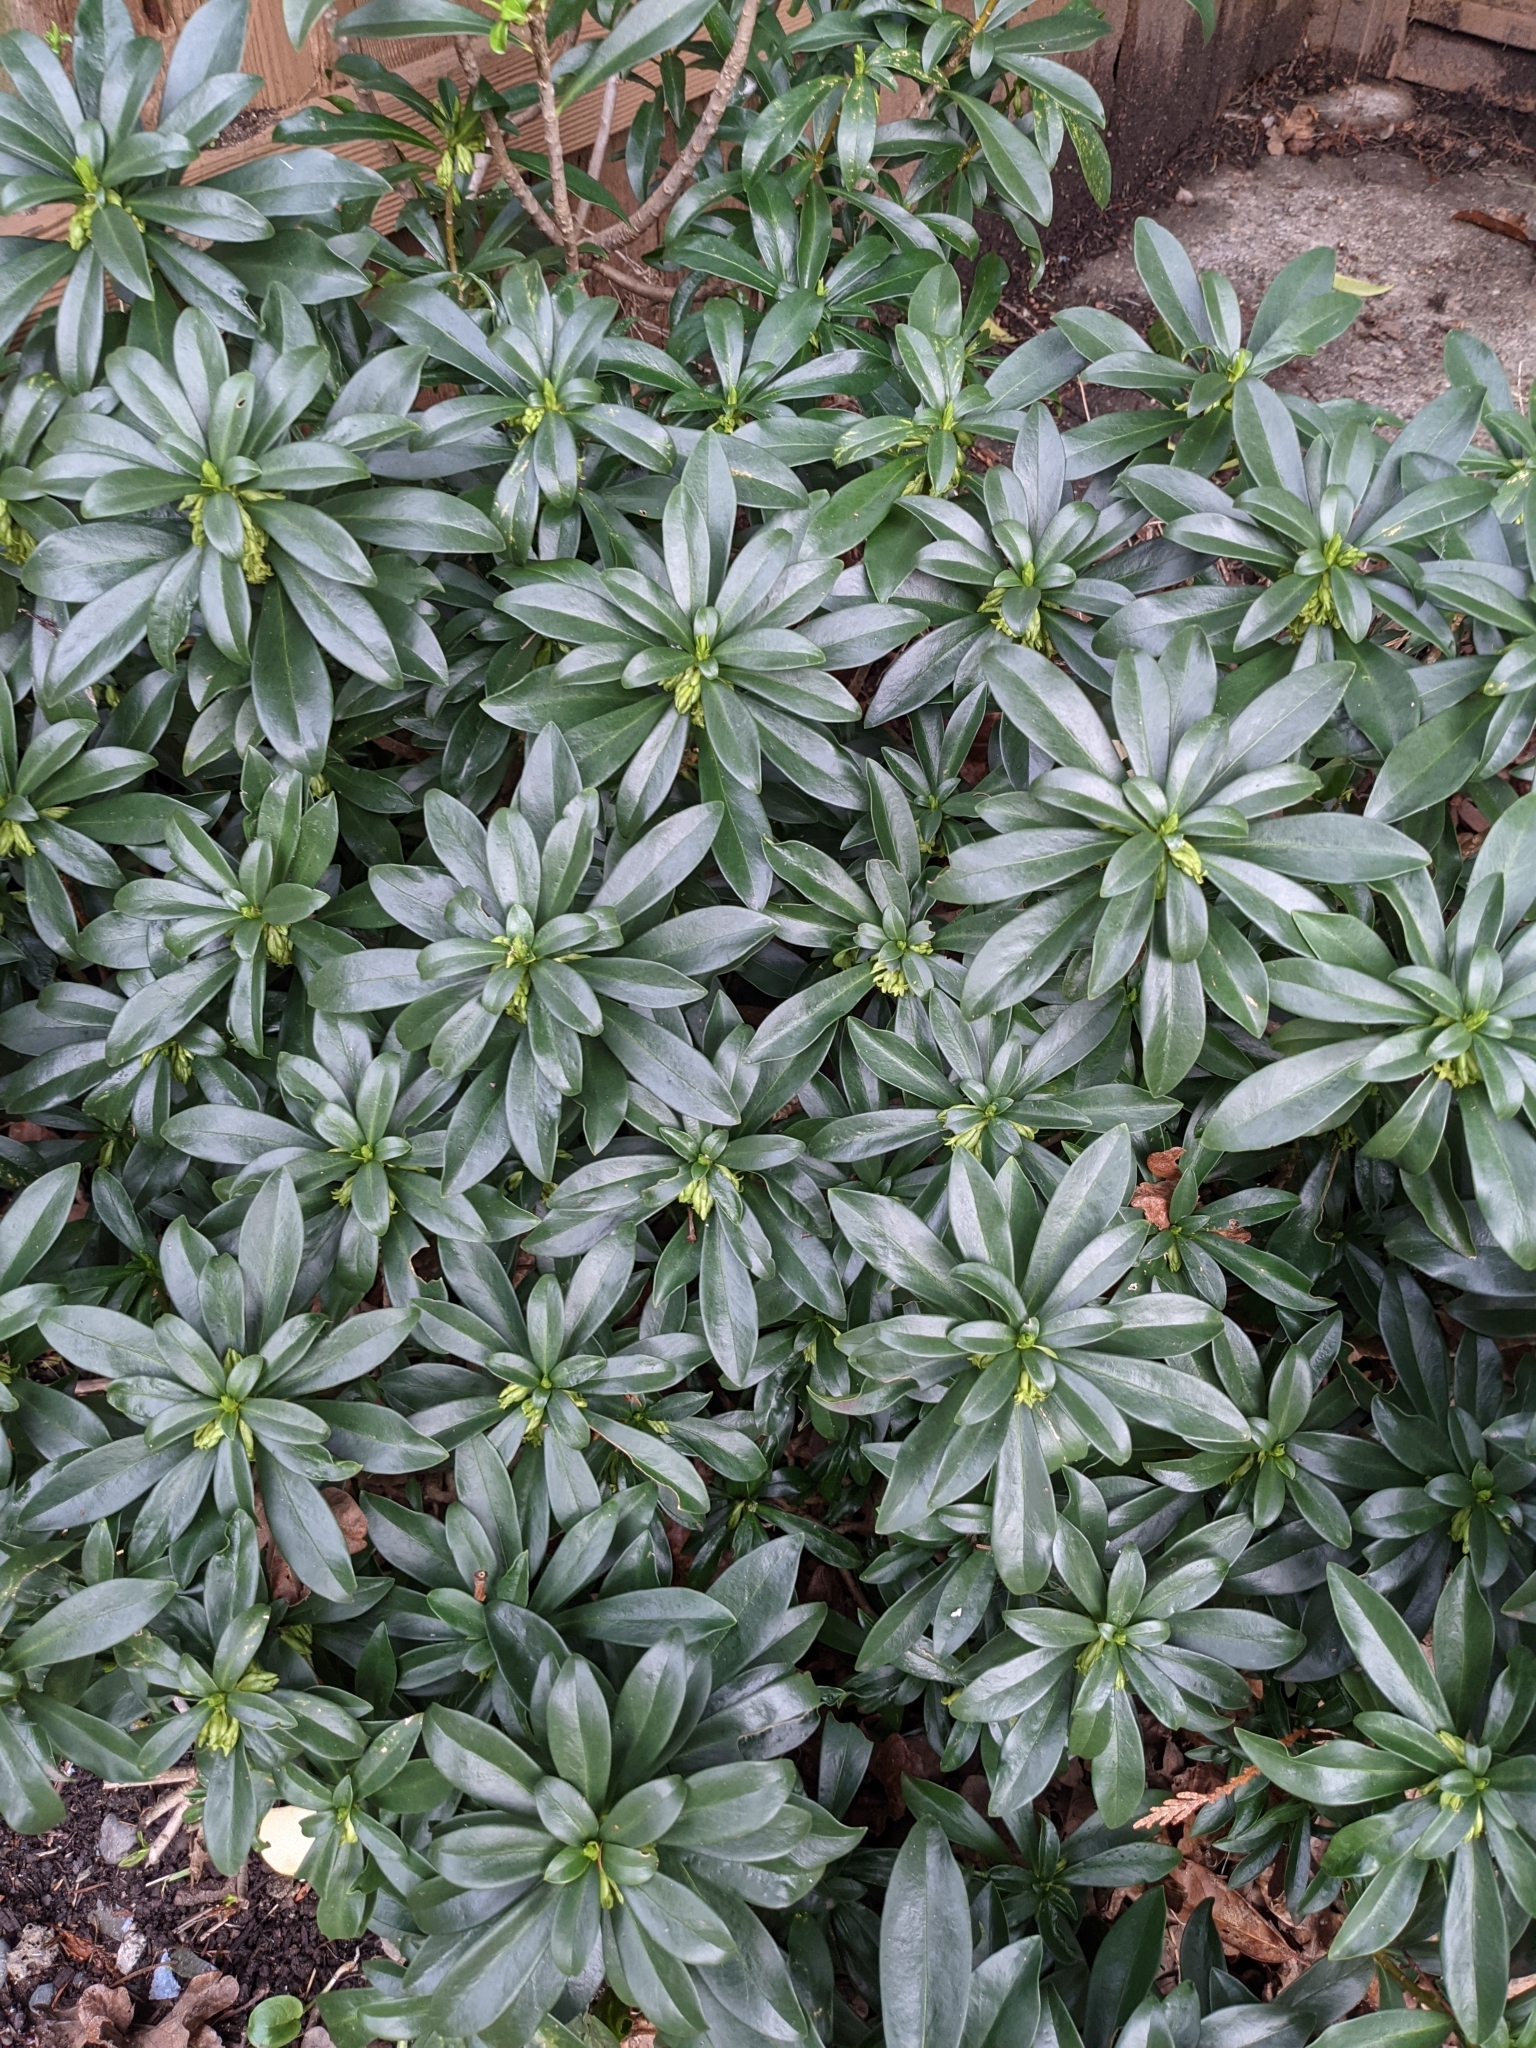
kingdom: Plantae
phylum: Tracheophyta
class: Magnoliopsida
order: Malvales
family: Thymelaeaceae
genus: Daphne
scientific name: Daphne laureola
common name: Spurge-laurel
